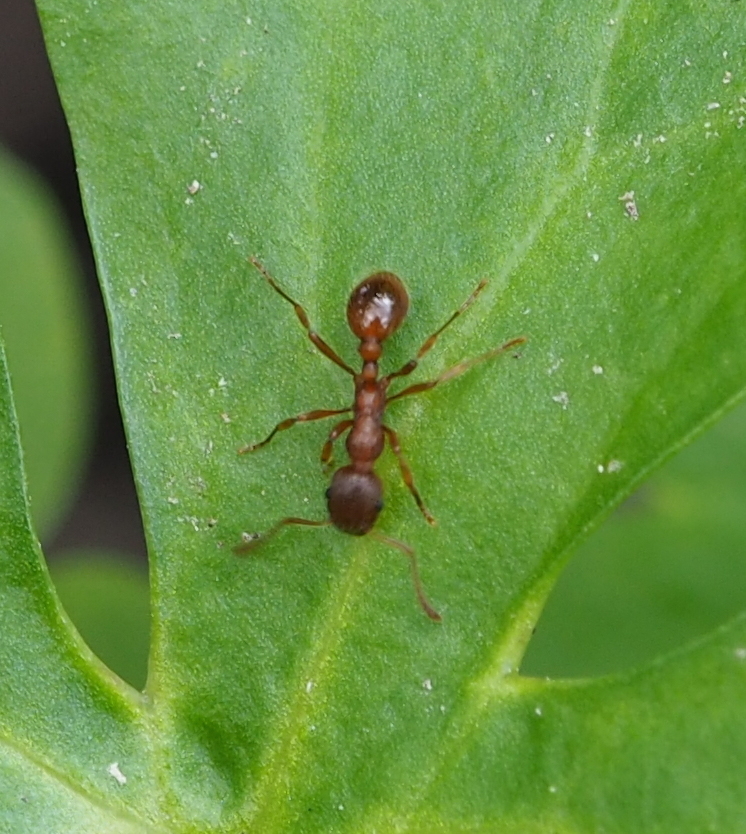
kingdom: Animalia
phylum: Arthropoda
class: Insecta
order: Hymenoptera
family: Formicidae
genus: Myrmica
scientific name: Myrmica rubra
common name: European fire ant
